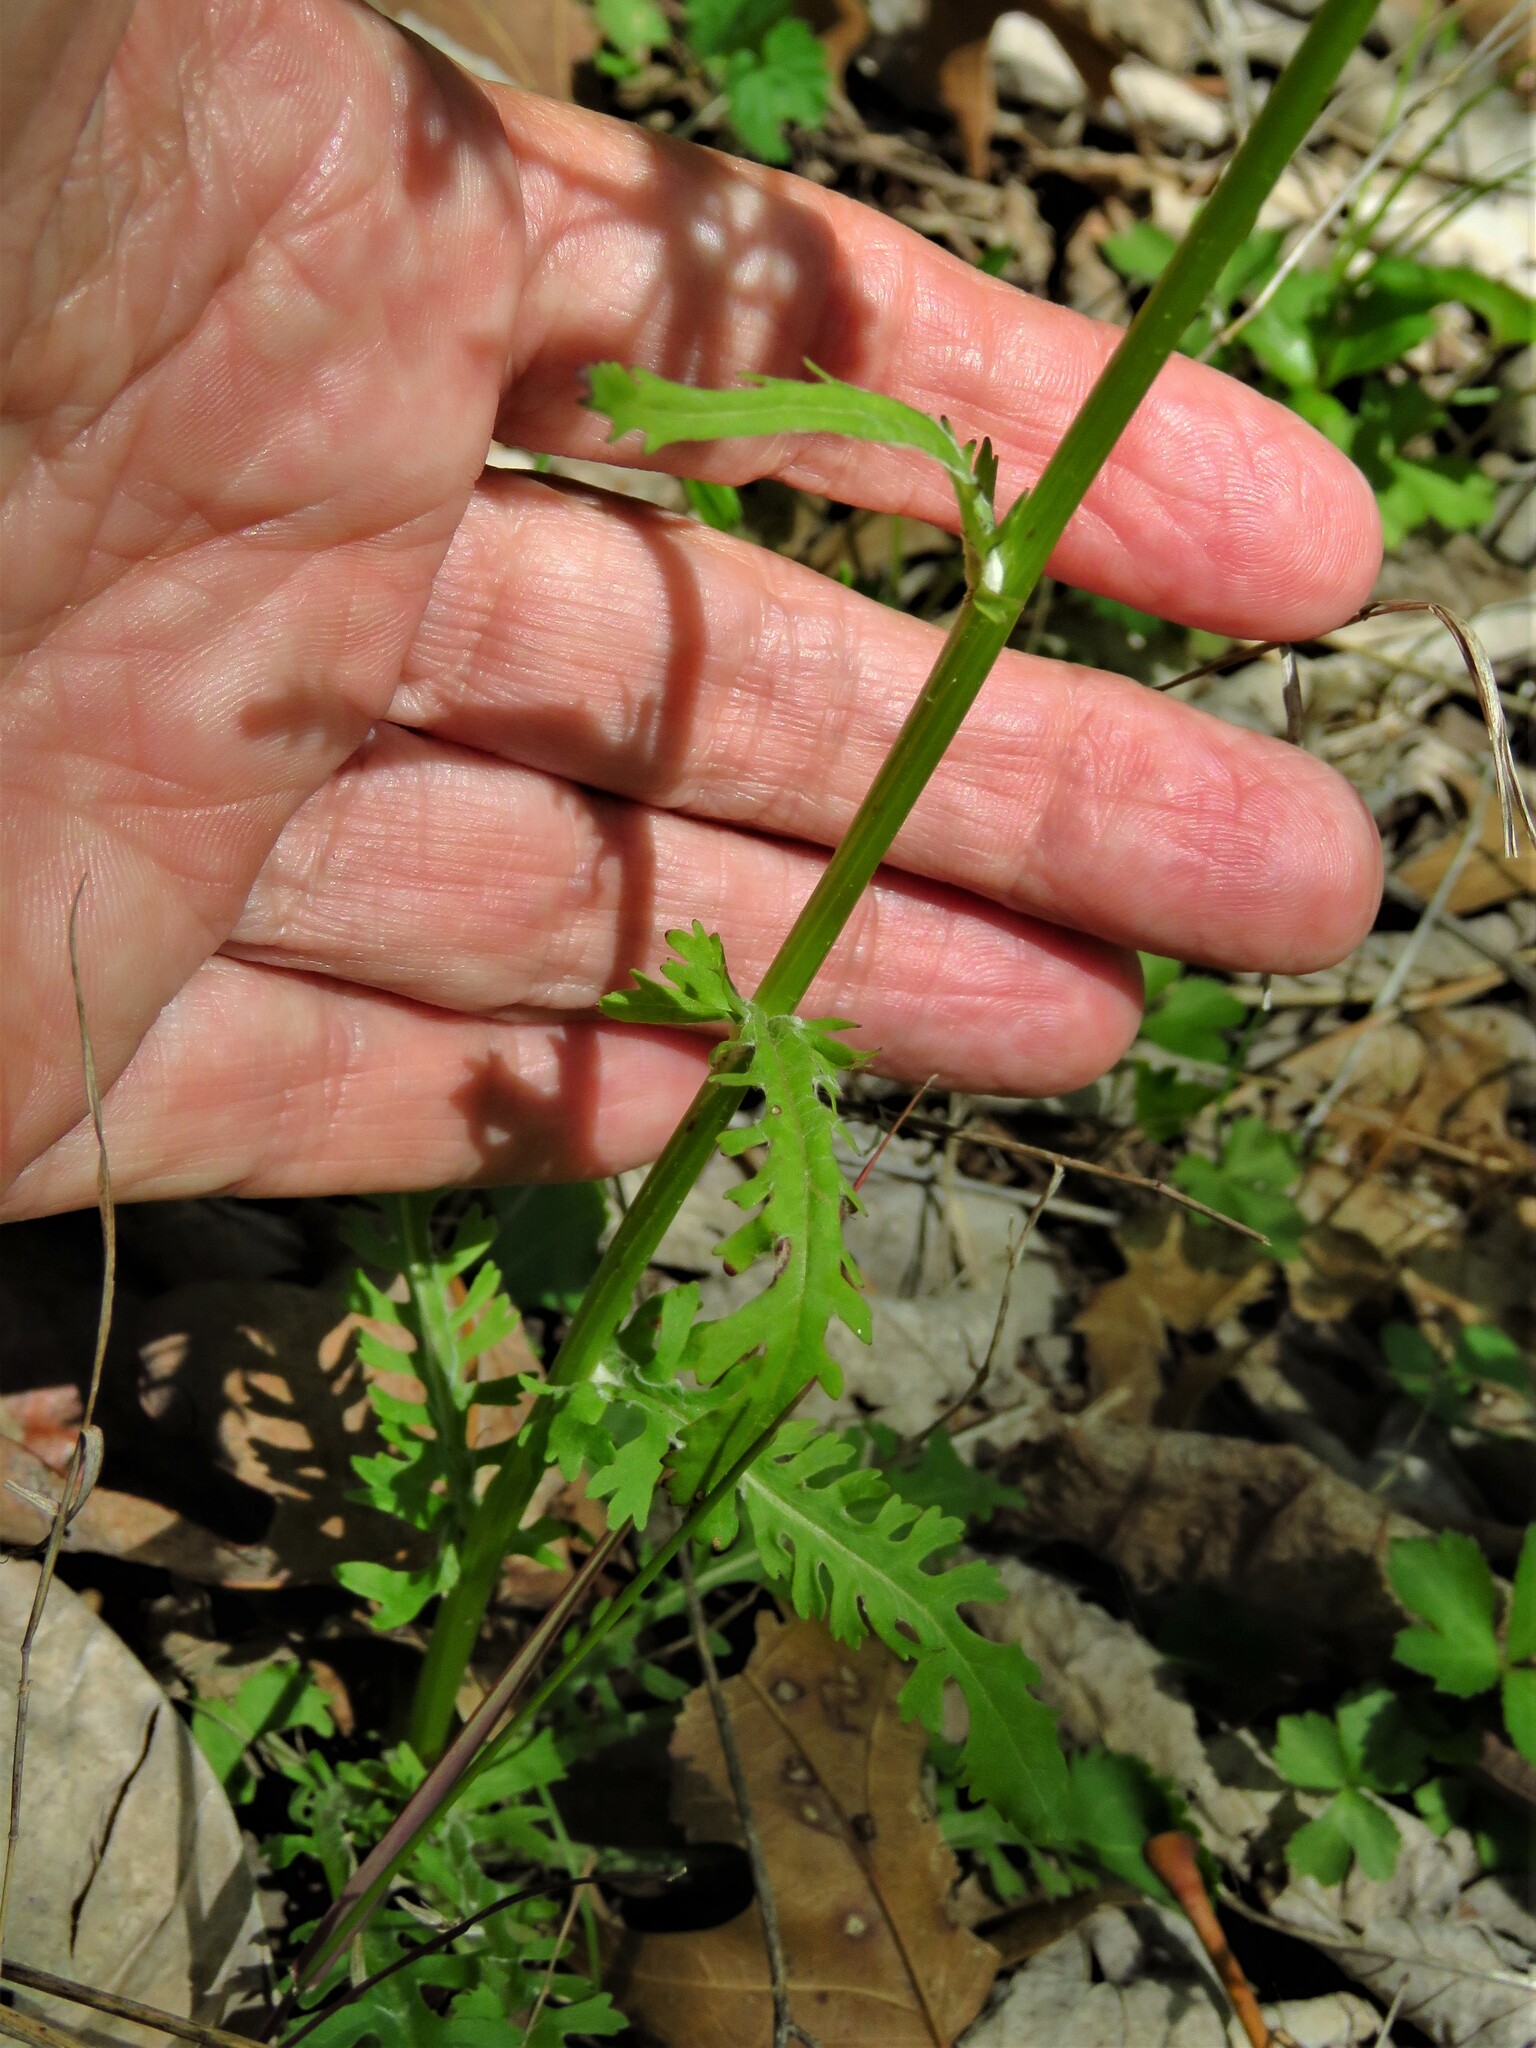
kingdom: Plantae
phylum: Tracheophyta
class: Magnoliopsida
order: Asterales
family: Asteraceae
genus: Packera
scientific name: Packera obovata
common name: Round-leaf ragwort
